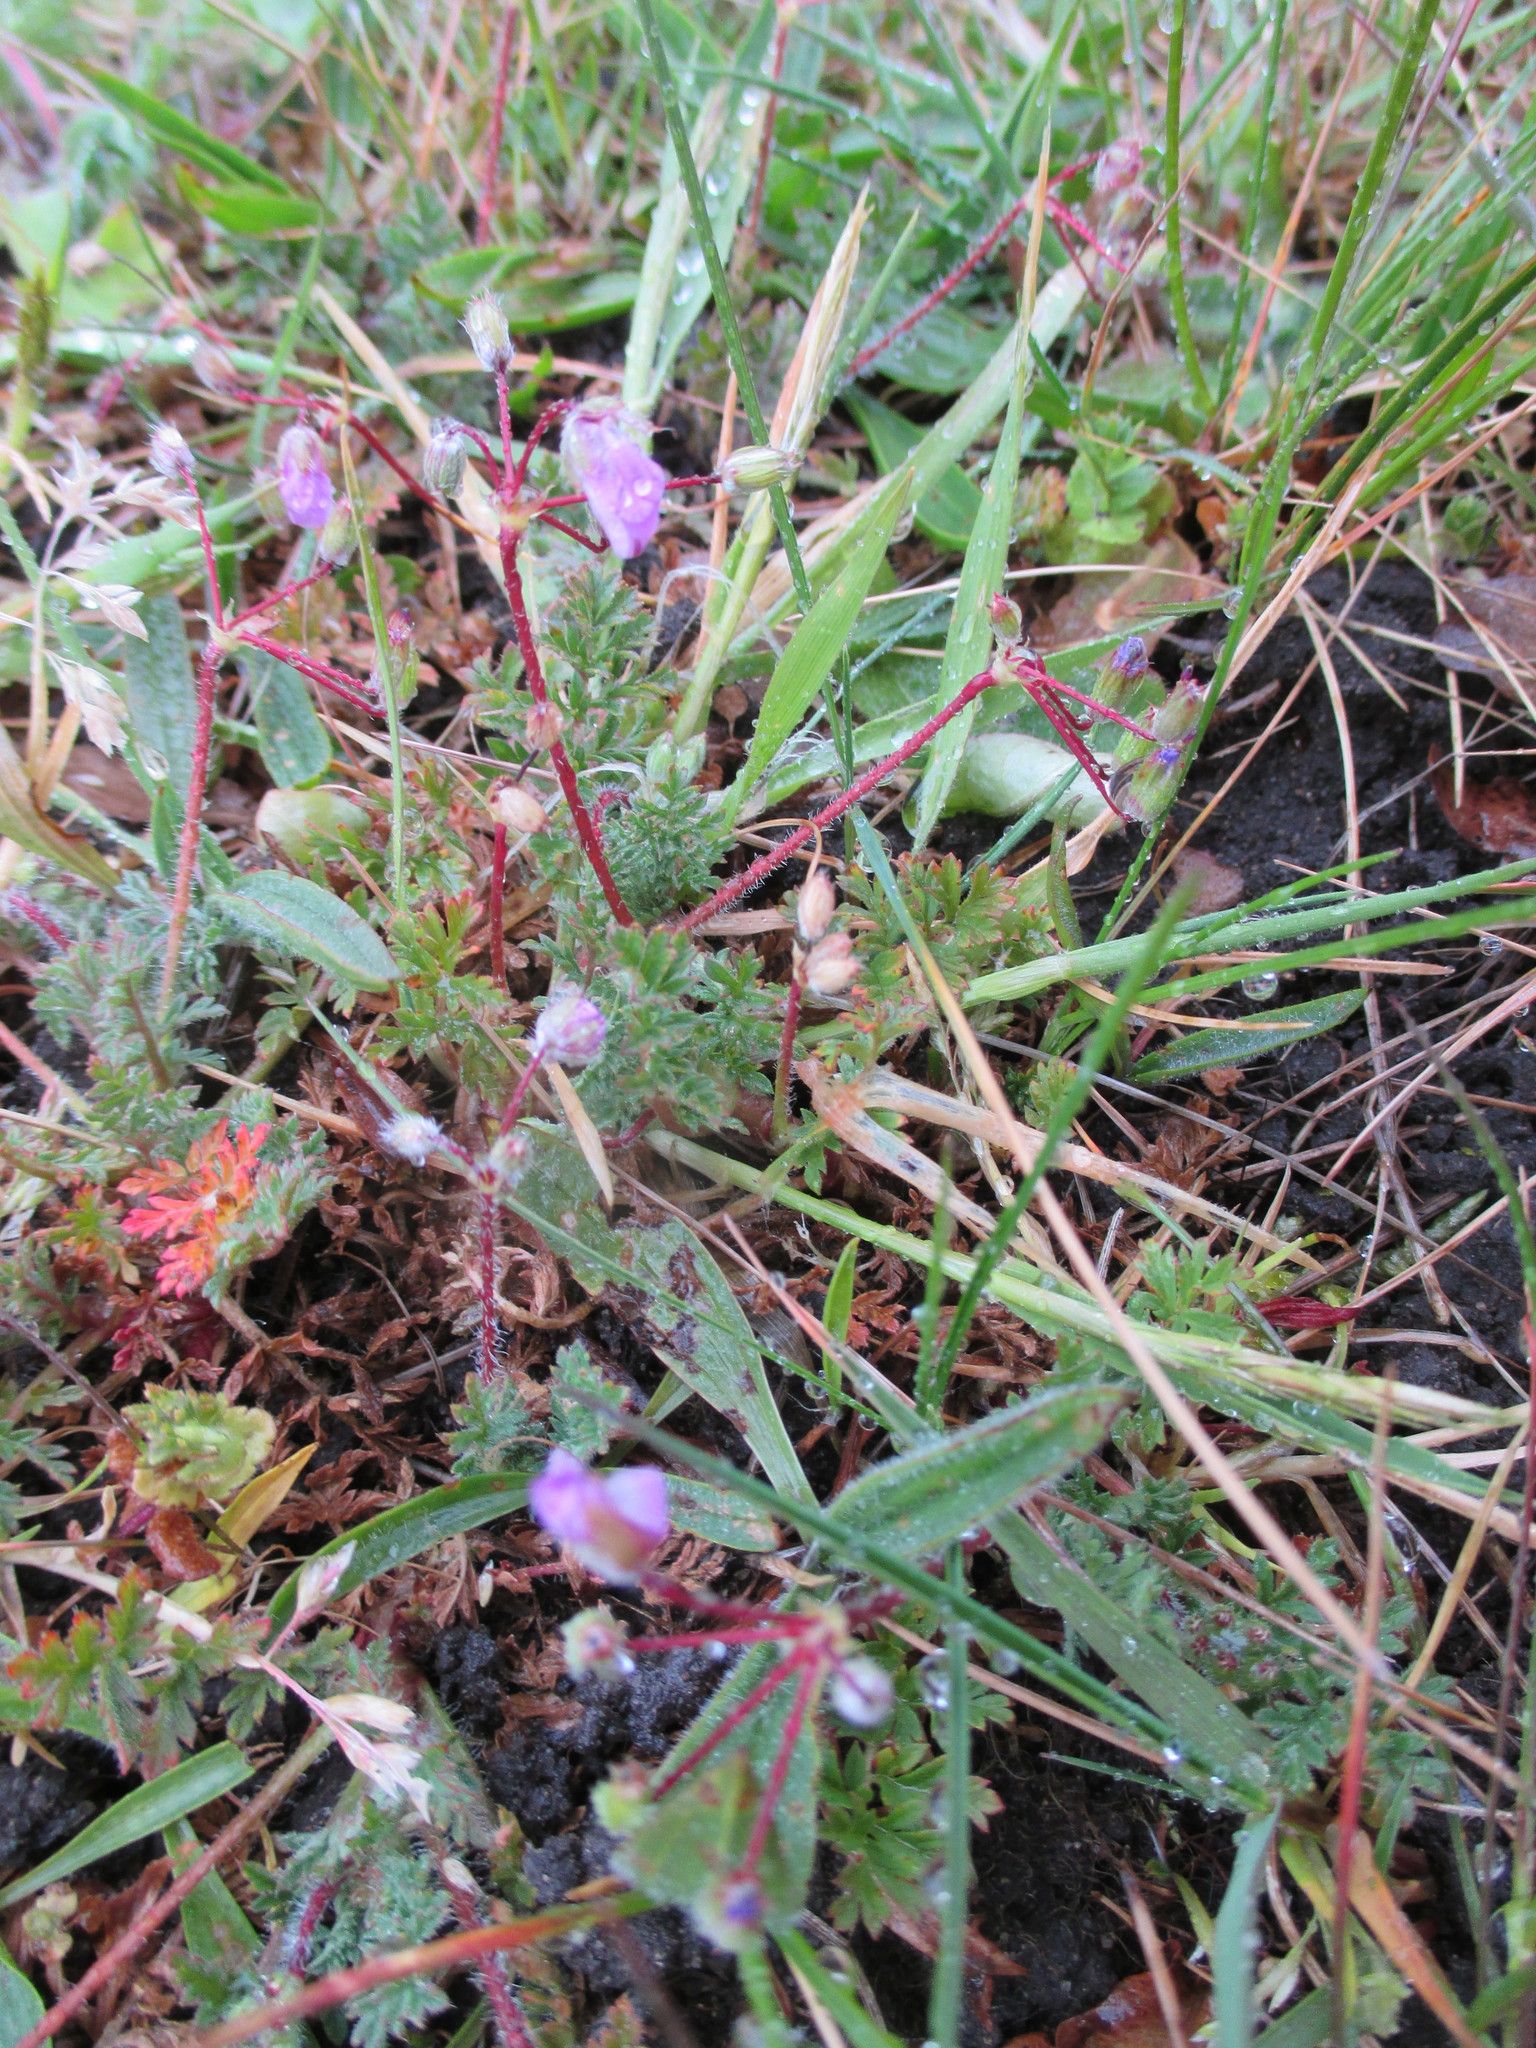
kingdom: Plantae
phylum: Tracheophyta
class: Magnoliopsida
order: Geraniales
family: Geraniaceae
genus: Erodium
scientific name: Erodium cicutarium
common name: Common stork's-bill
